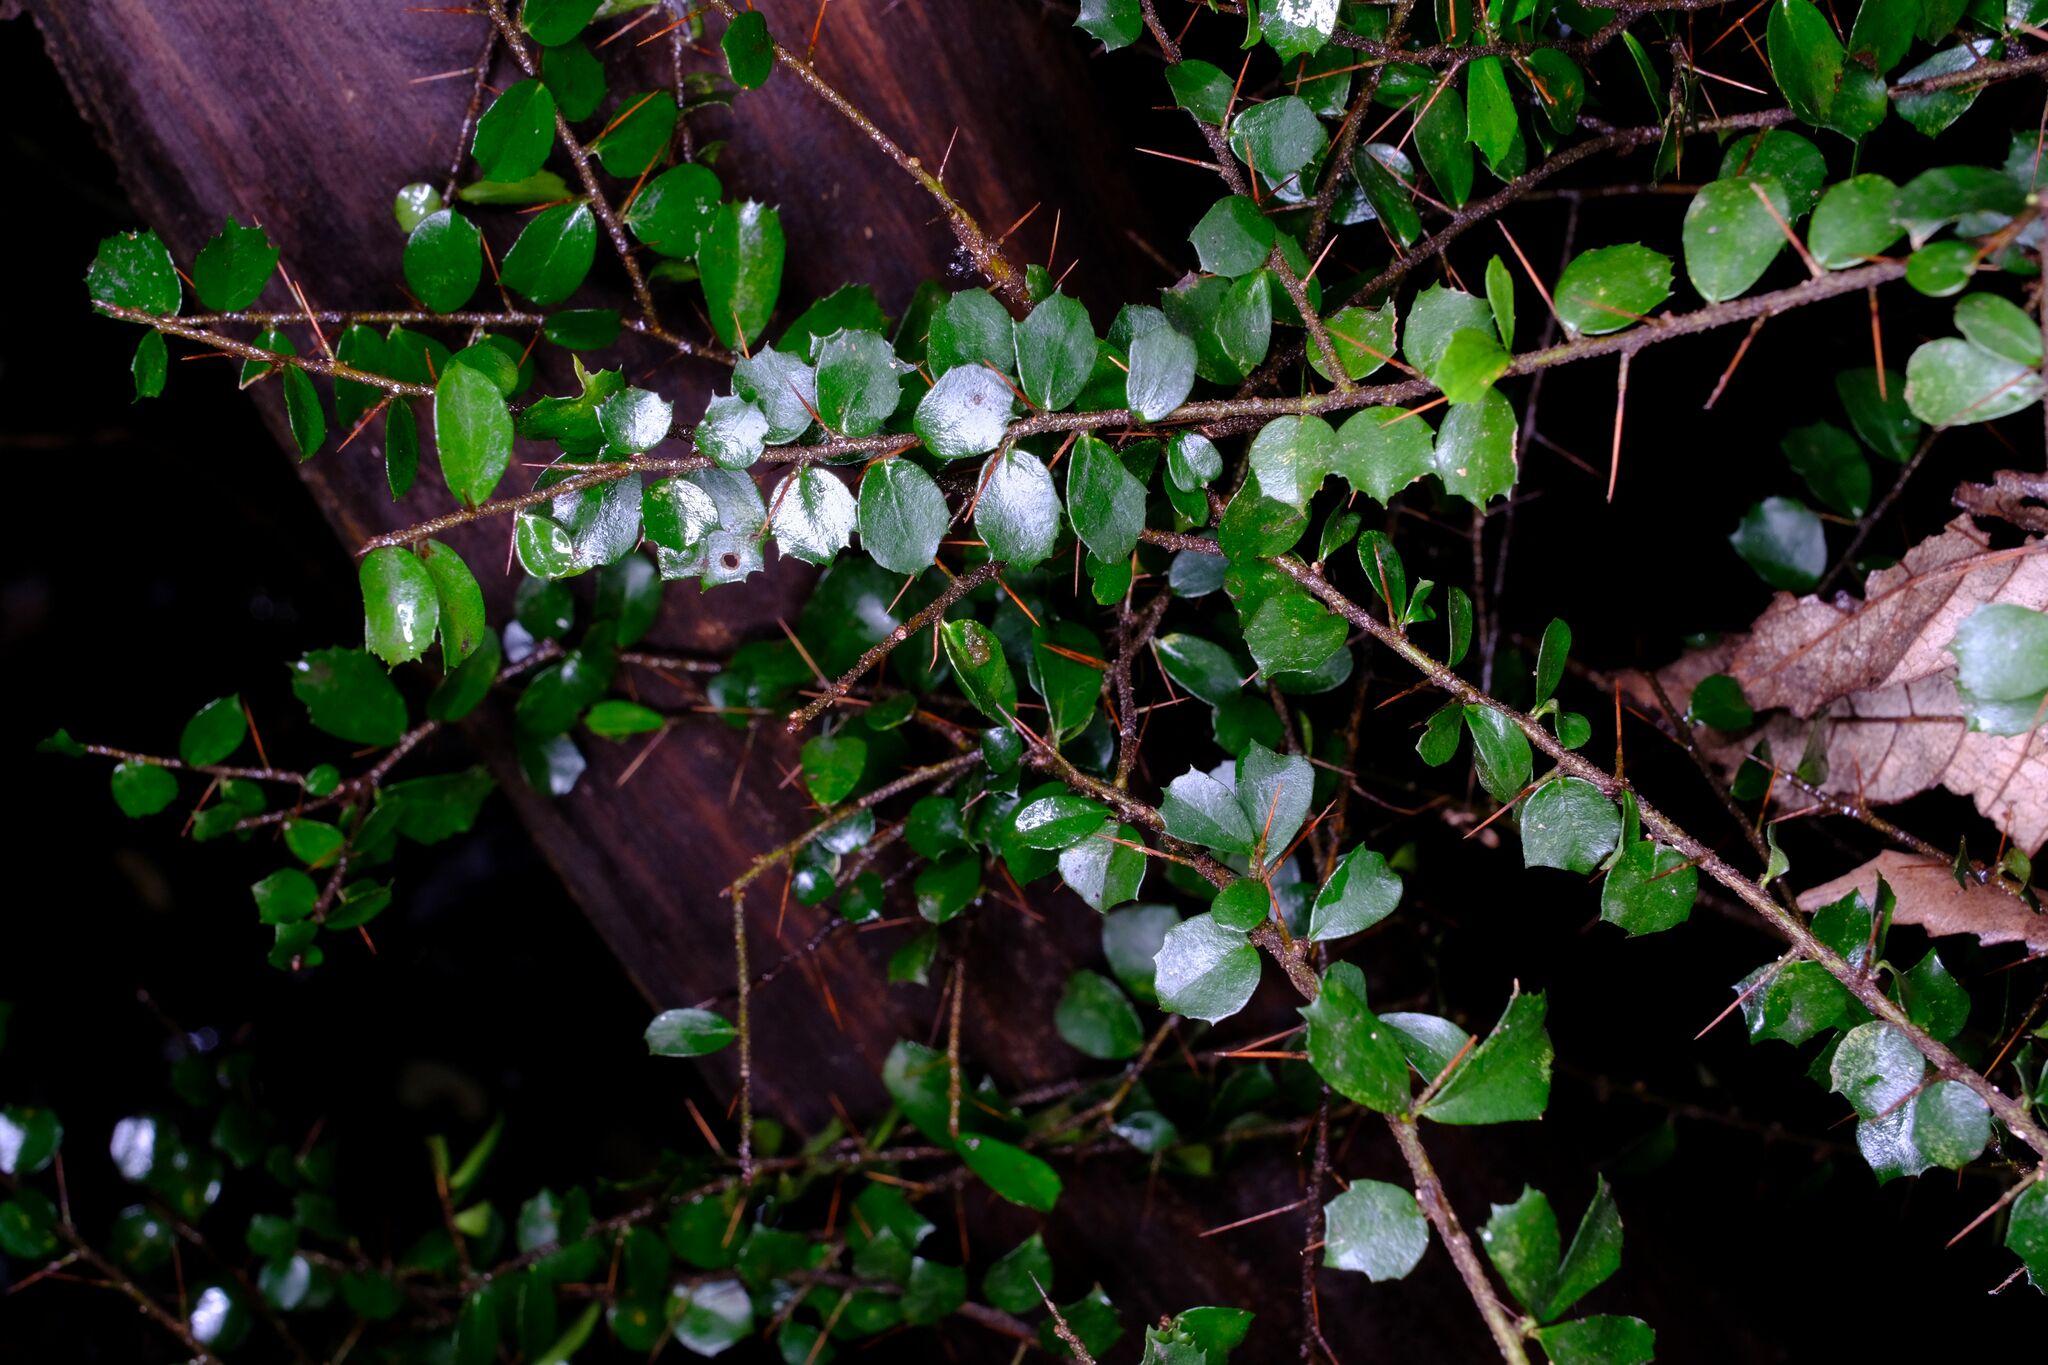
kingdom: Plantae
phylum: Tracheophyta
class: Magnoliopsida
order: Apiales
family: Pittosporaceae
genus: Pittosporum
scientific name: Pittosporum multiflorum
